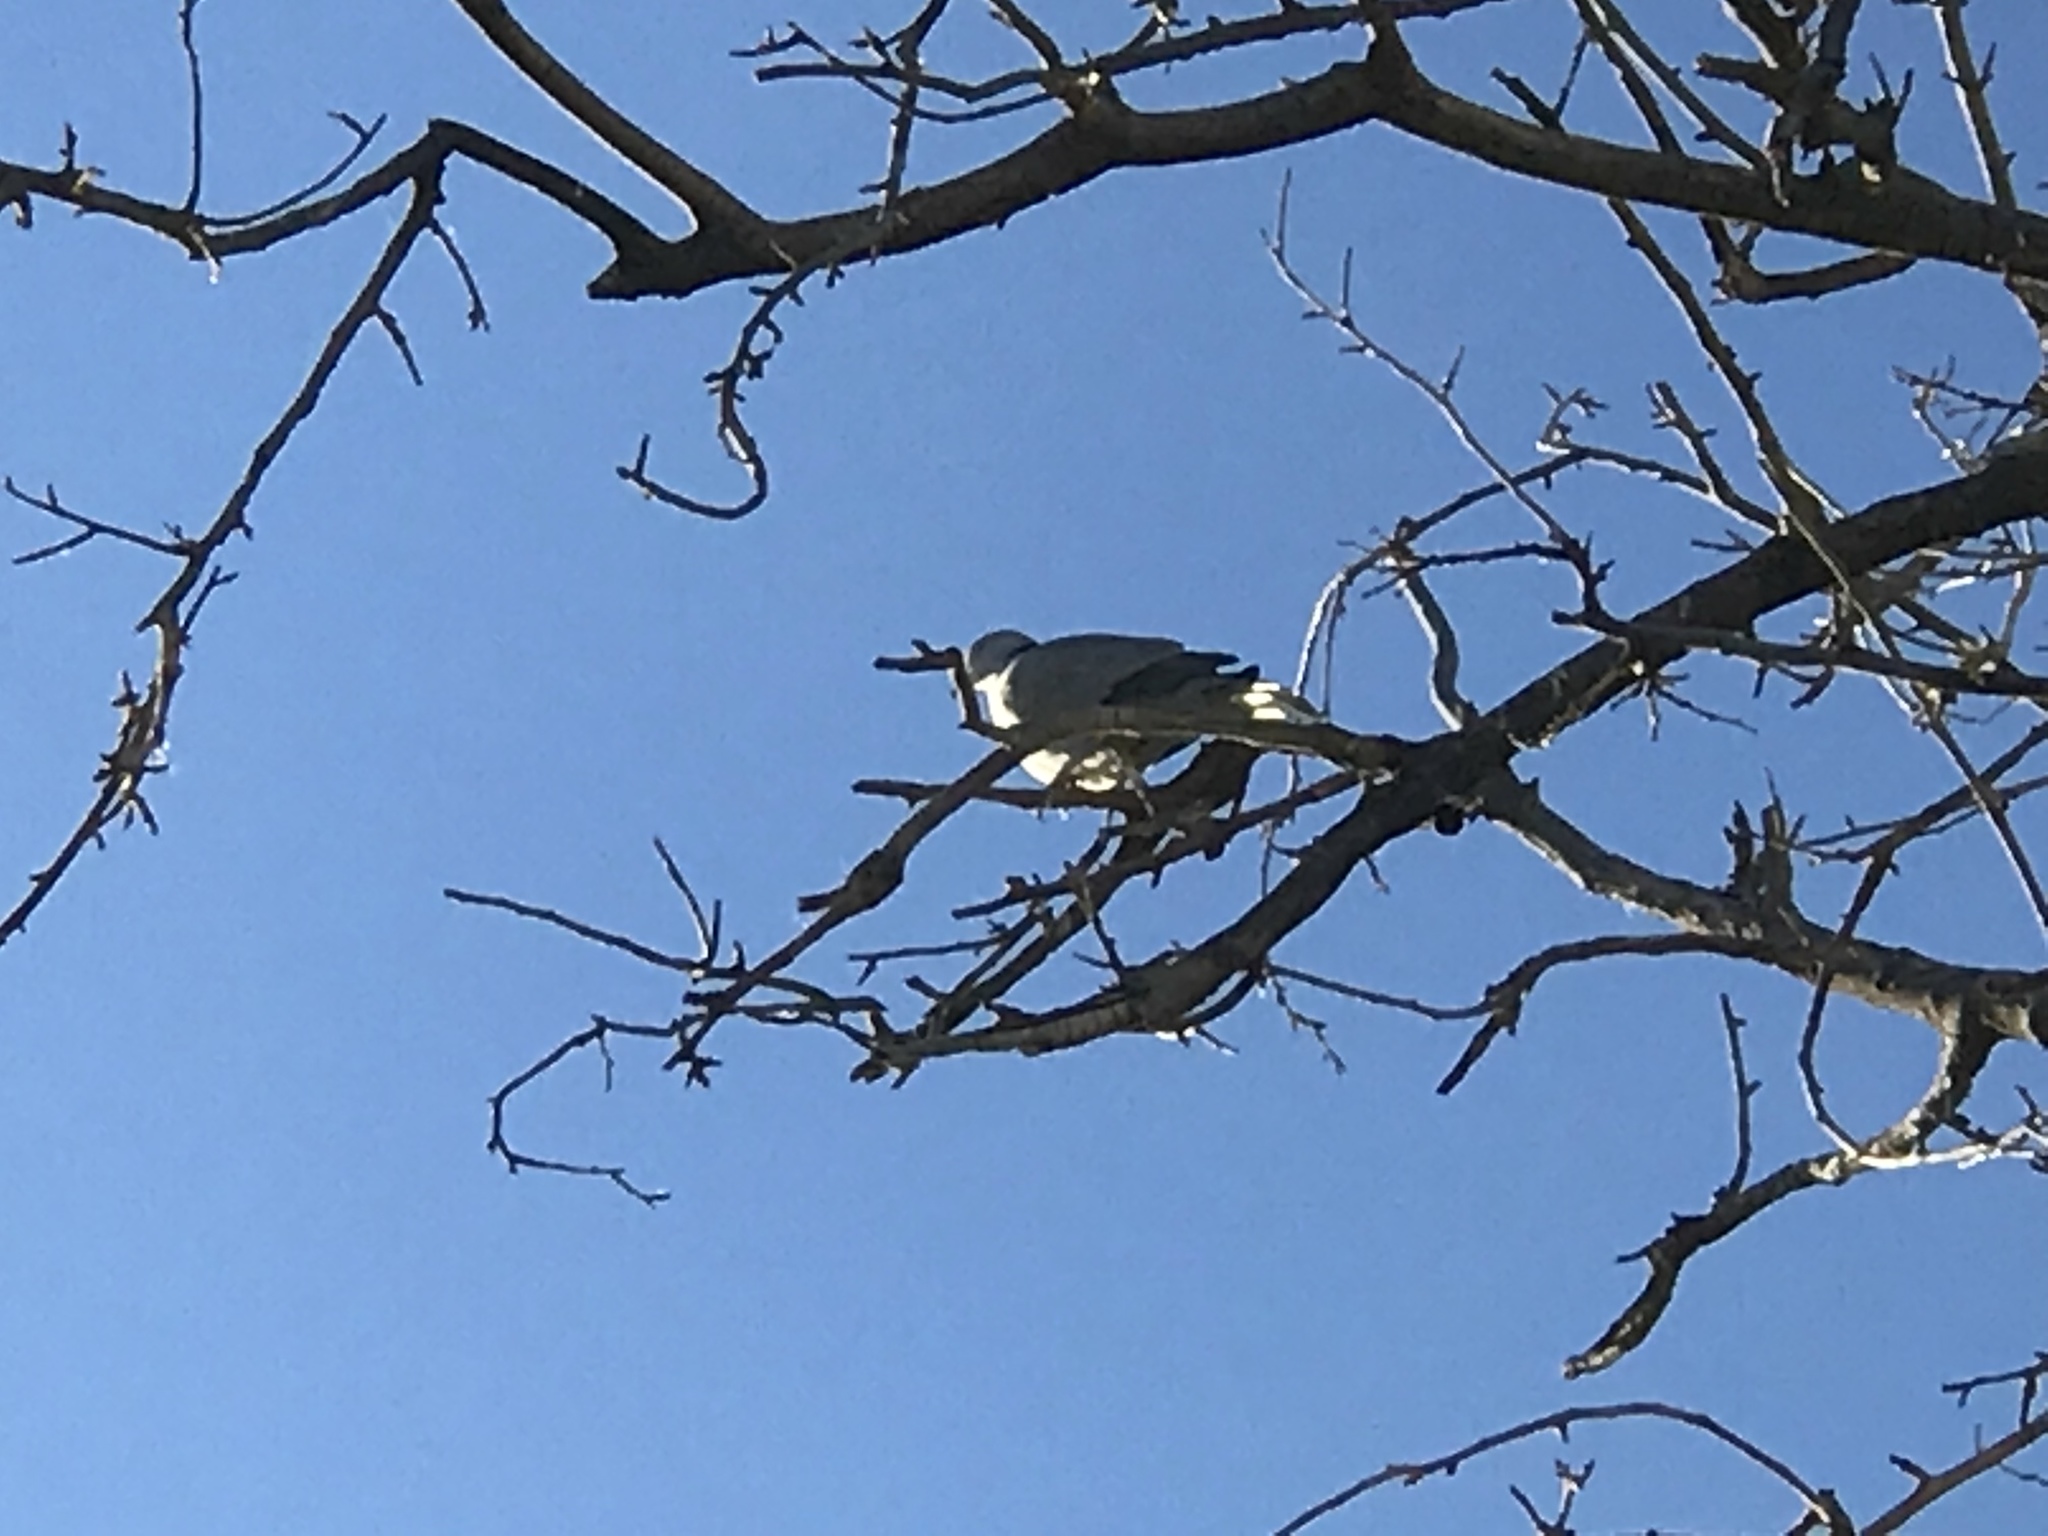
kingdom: Animalia
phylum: Chordata
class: Aves
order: Columbiformes
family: Columbidae
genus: Streptopelia
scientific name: Streptopelia decaocto
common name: Eurasian collared dove
